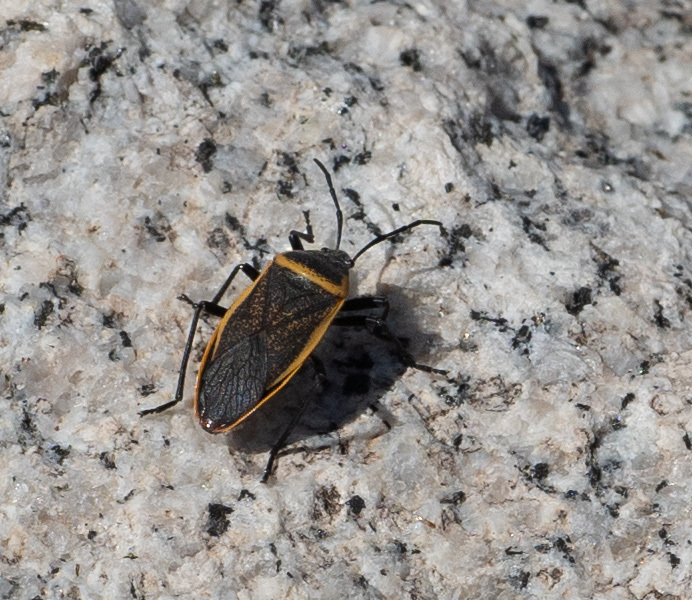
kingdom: Animalia
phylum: Arthropoda
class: Insecta
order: Hemiptera
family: Largidae
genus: Largus
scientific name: Largus californicus
